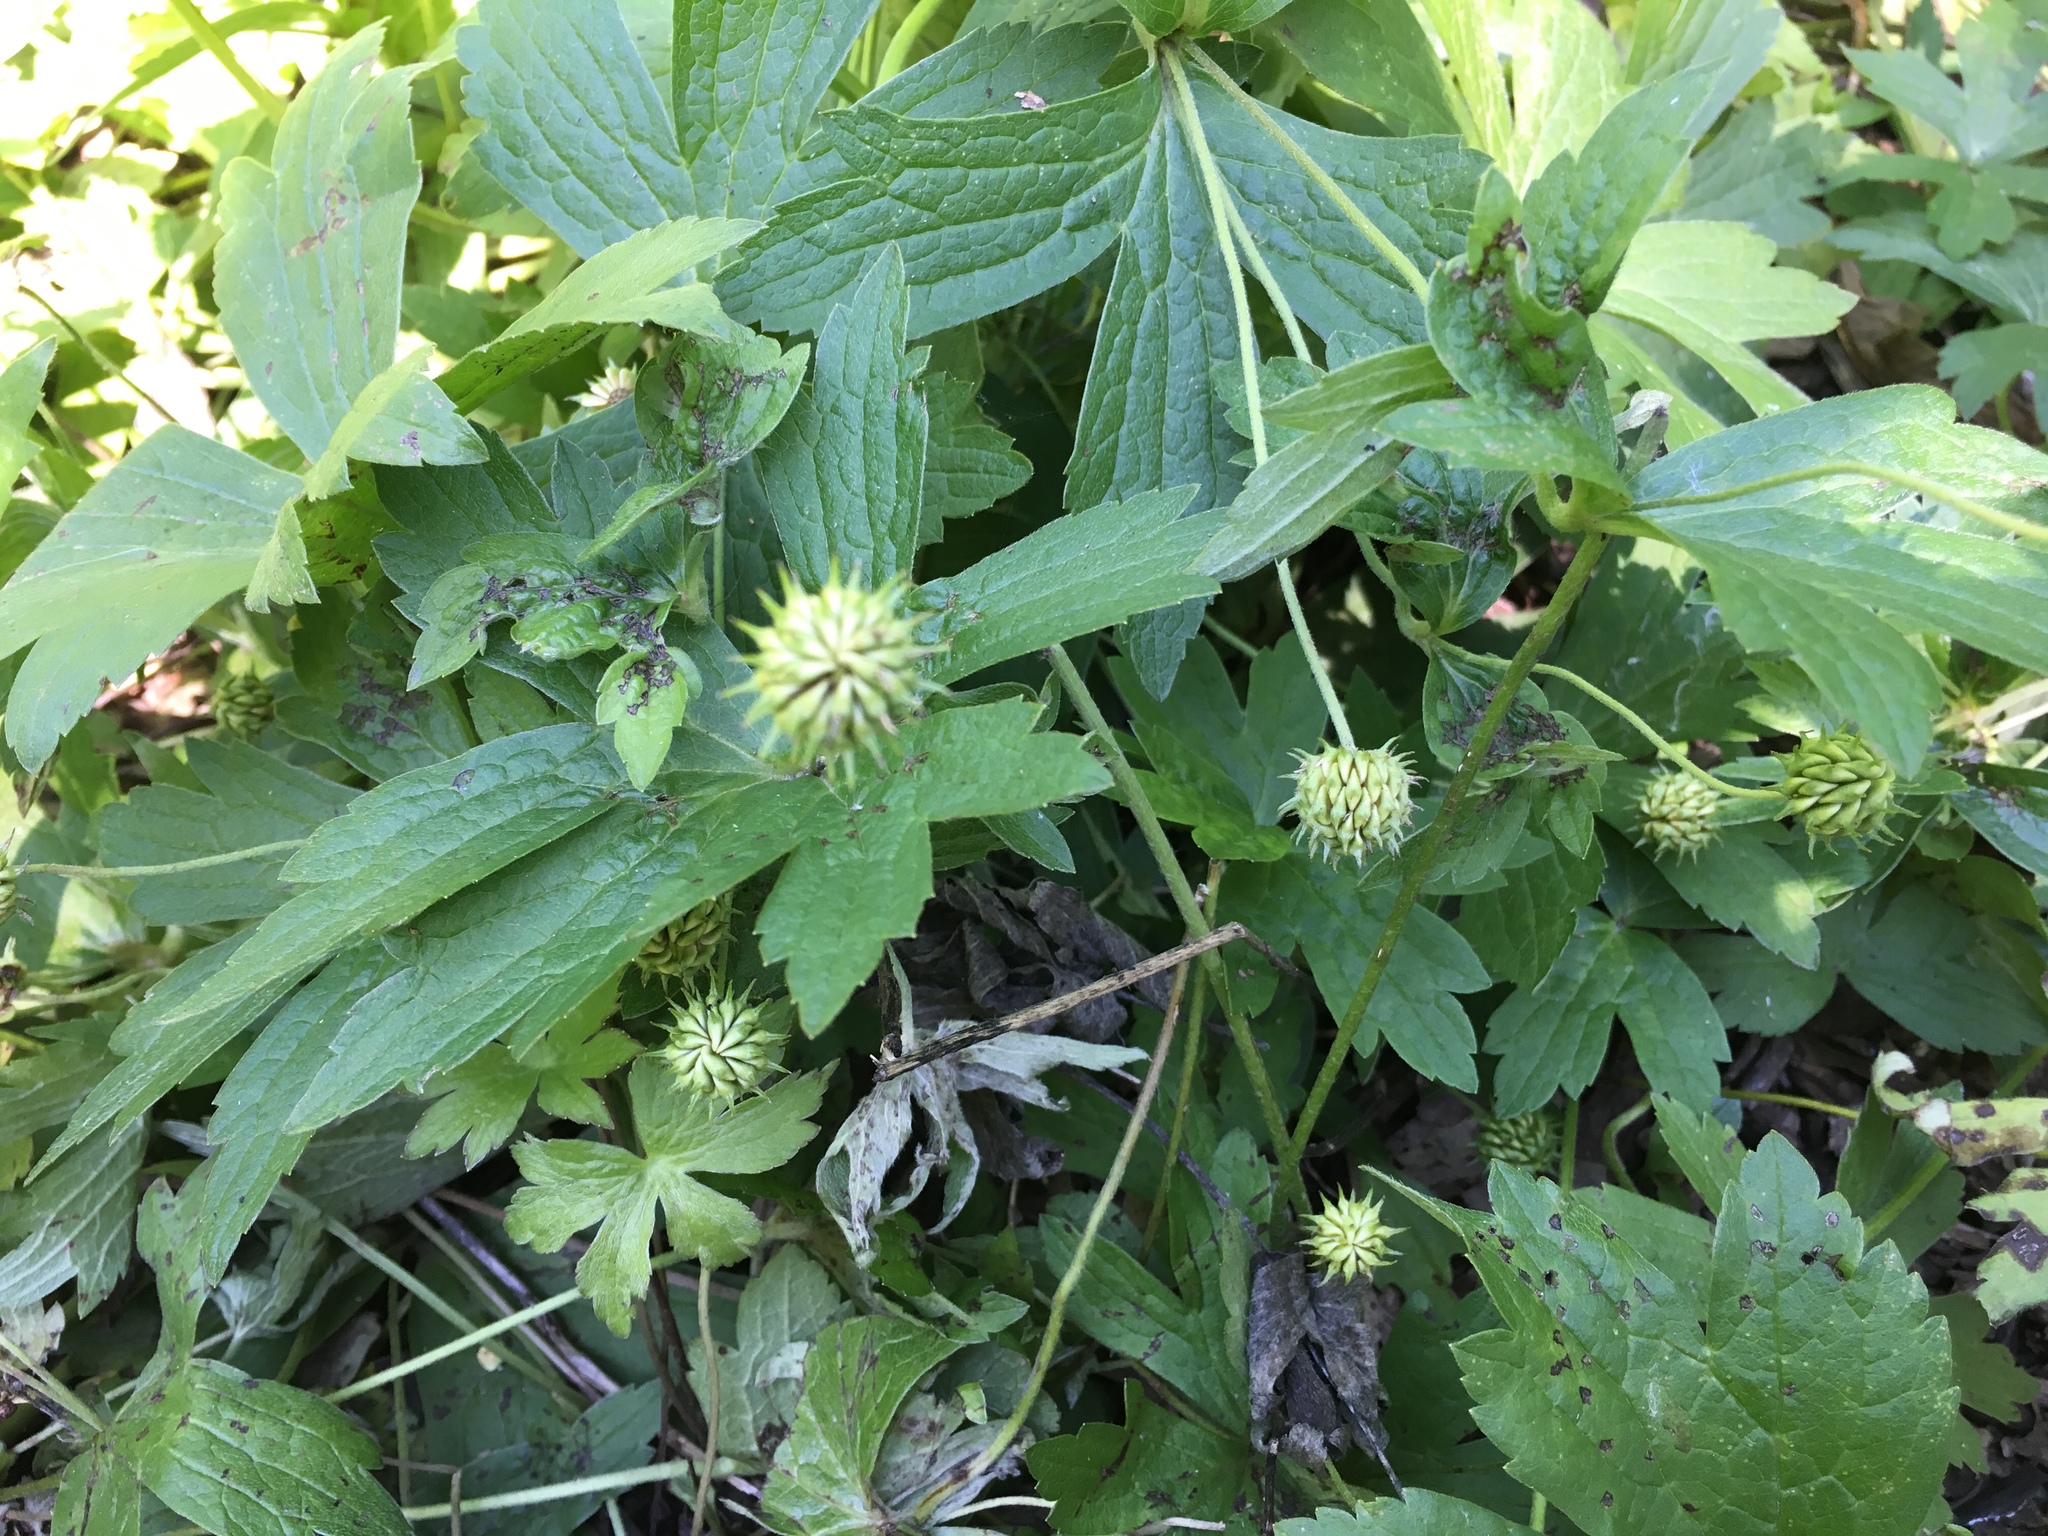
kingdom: Plantae
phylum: Tracheophyta
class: Magnoliopsida
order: Ranunculales
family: Ranunculaceae
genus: Anemonastrum
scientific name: Anemonastrum canadense
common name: Canada anemone
